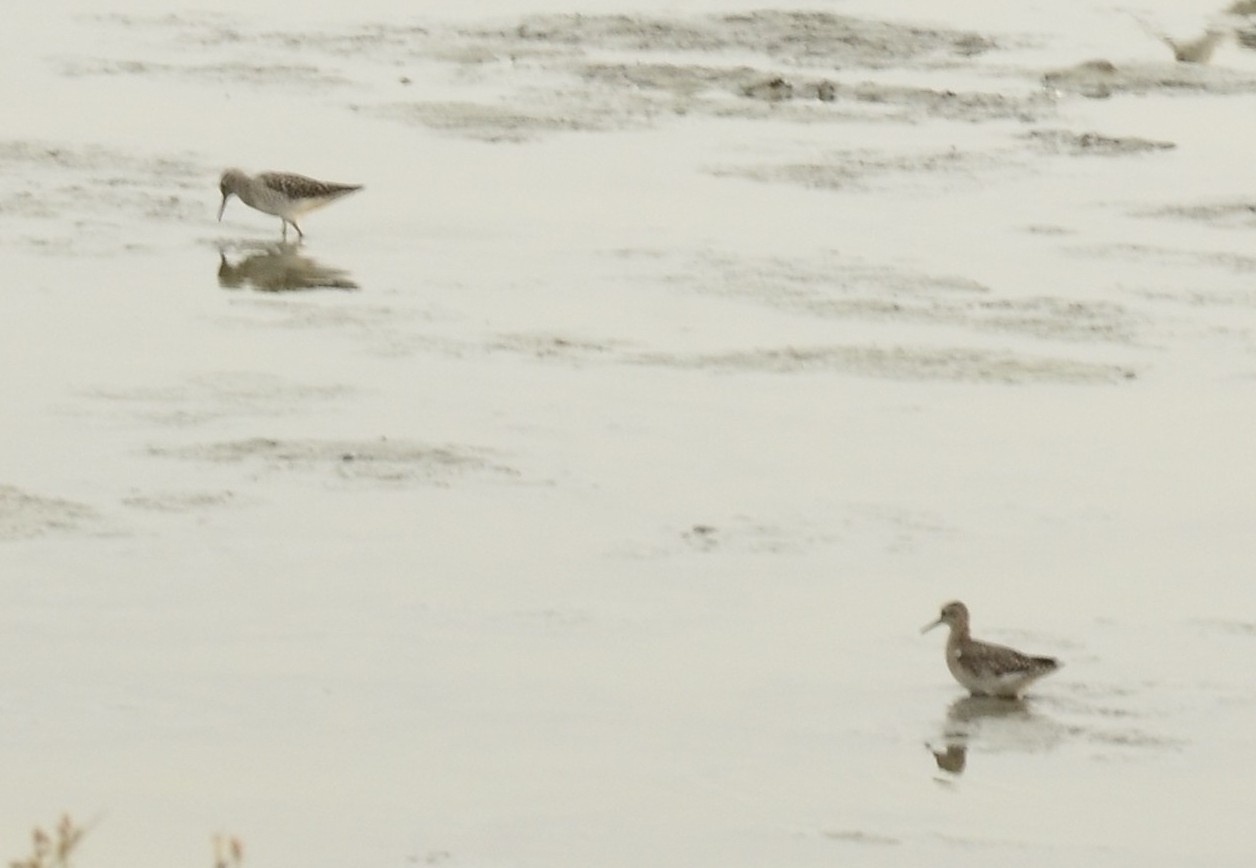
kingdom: Animalia
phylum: Chordata
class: Aves
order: Charadriiformes
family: Scolopacidae
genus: Tringa
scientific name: Tringa glareola
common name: Wood sandpiper
